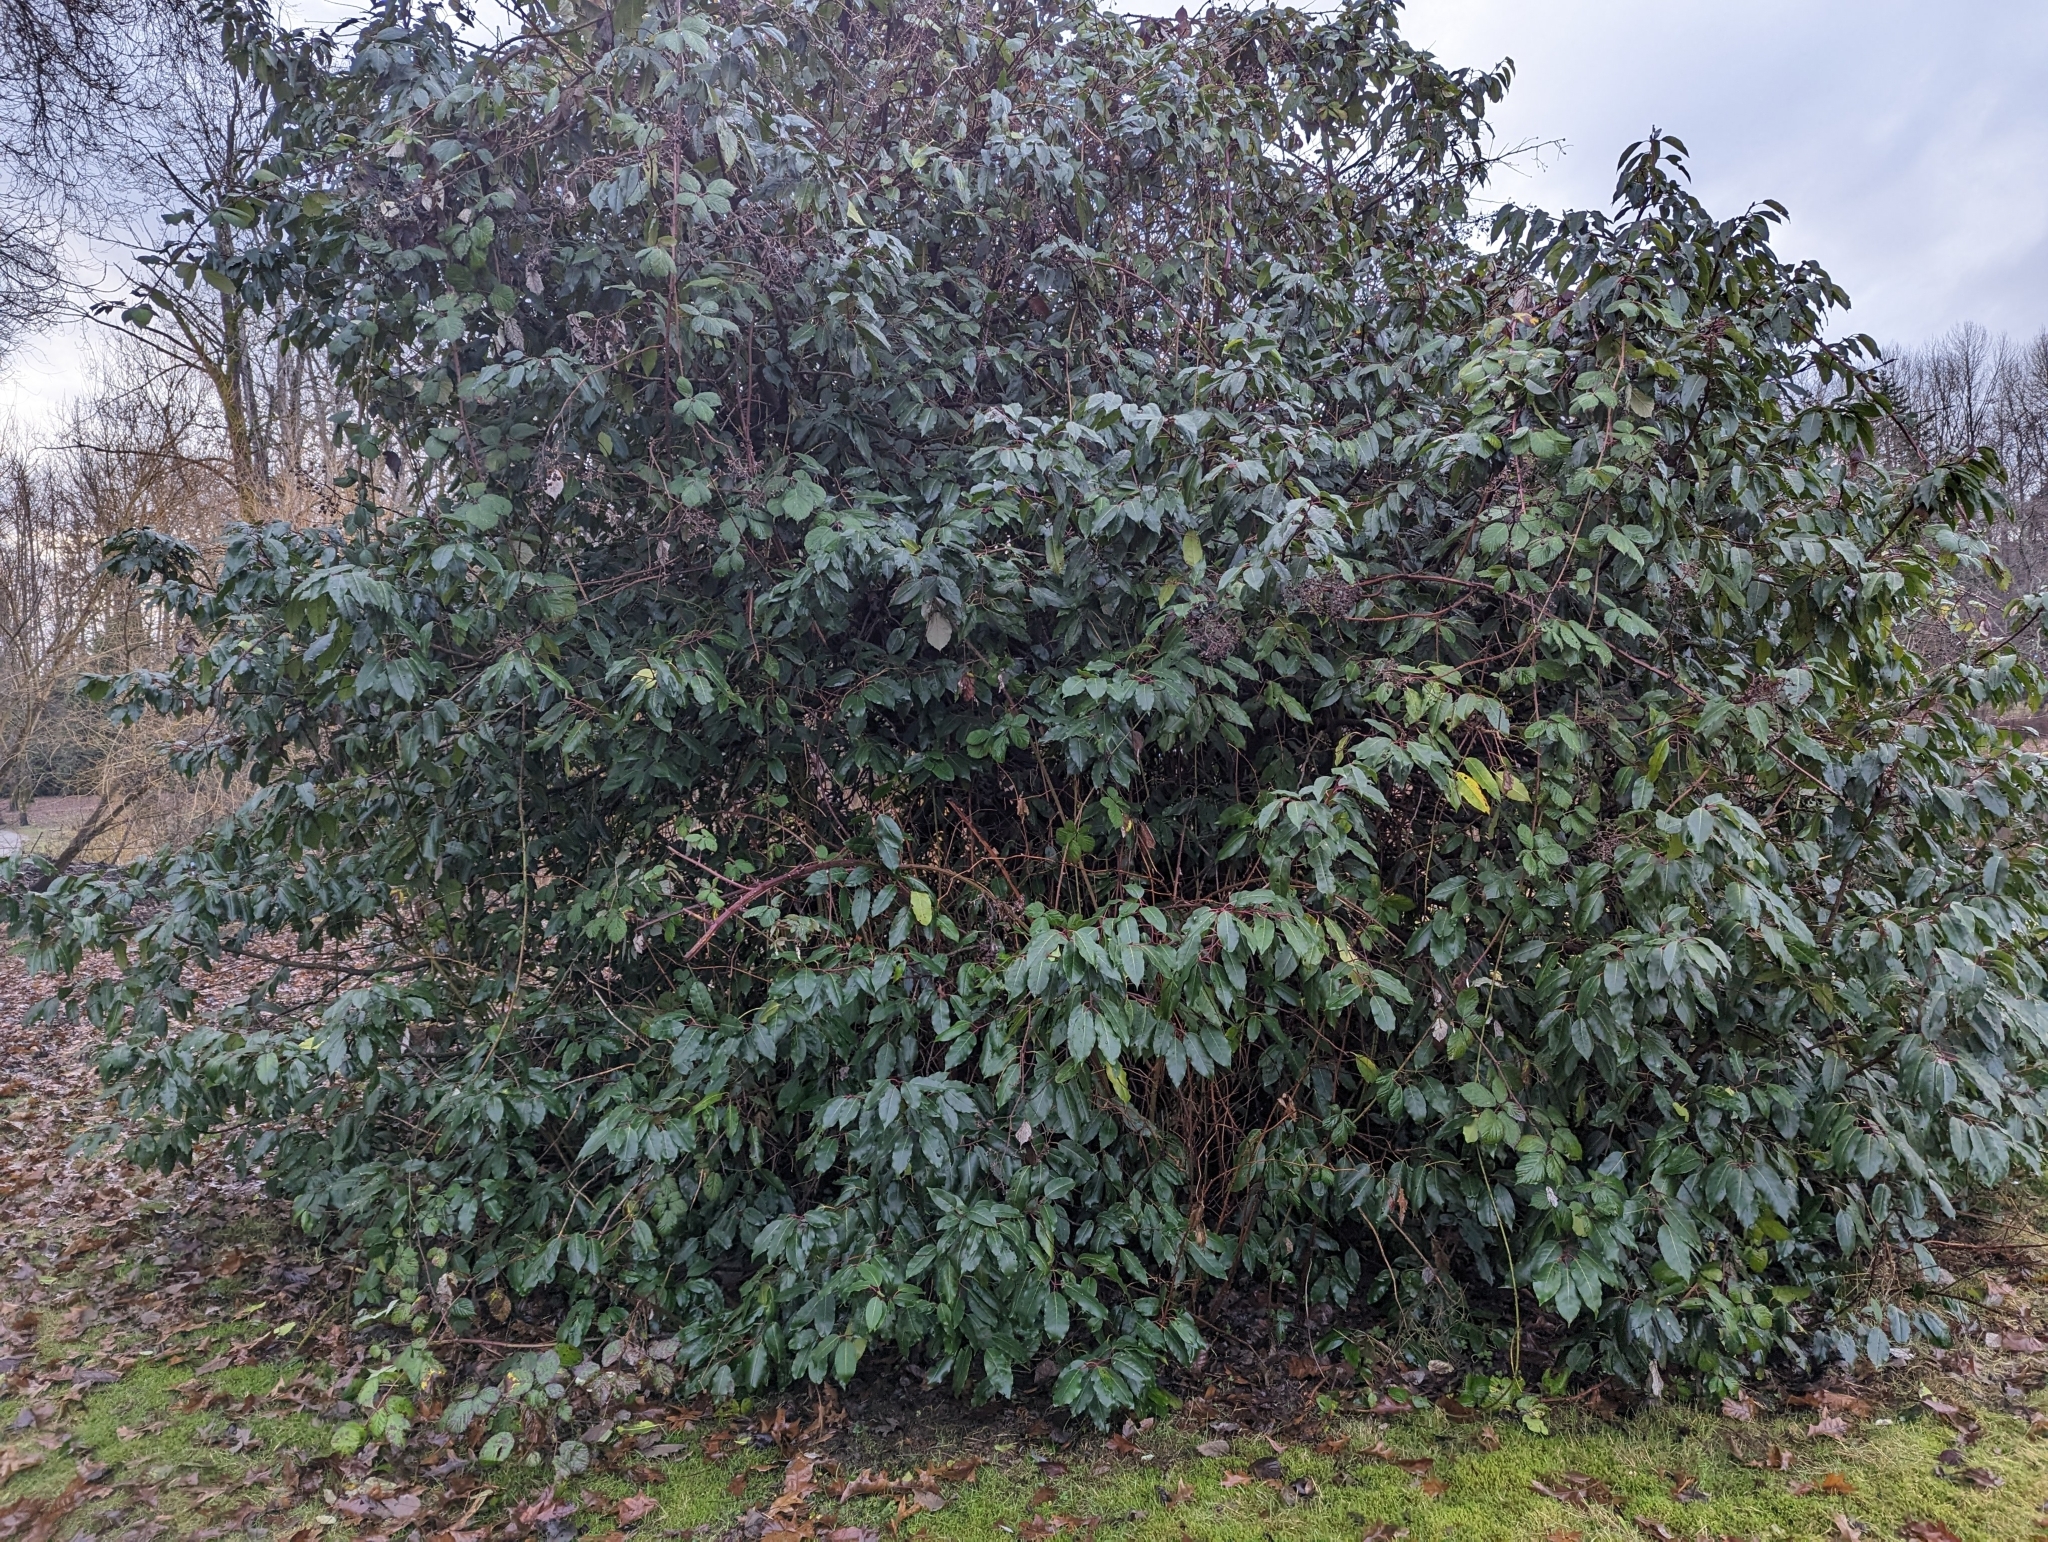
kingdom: Plantae
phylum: Tracheophyta
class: Magnoliopsida
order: Rosales
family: Rosaceae
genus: Prunus
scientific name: Prunus lusitanica
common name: Portugal laurel
